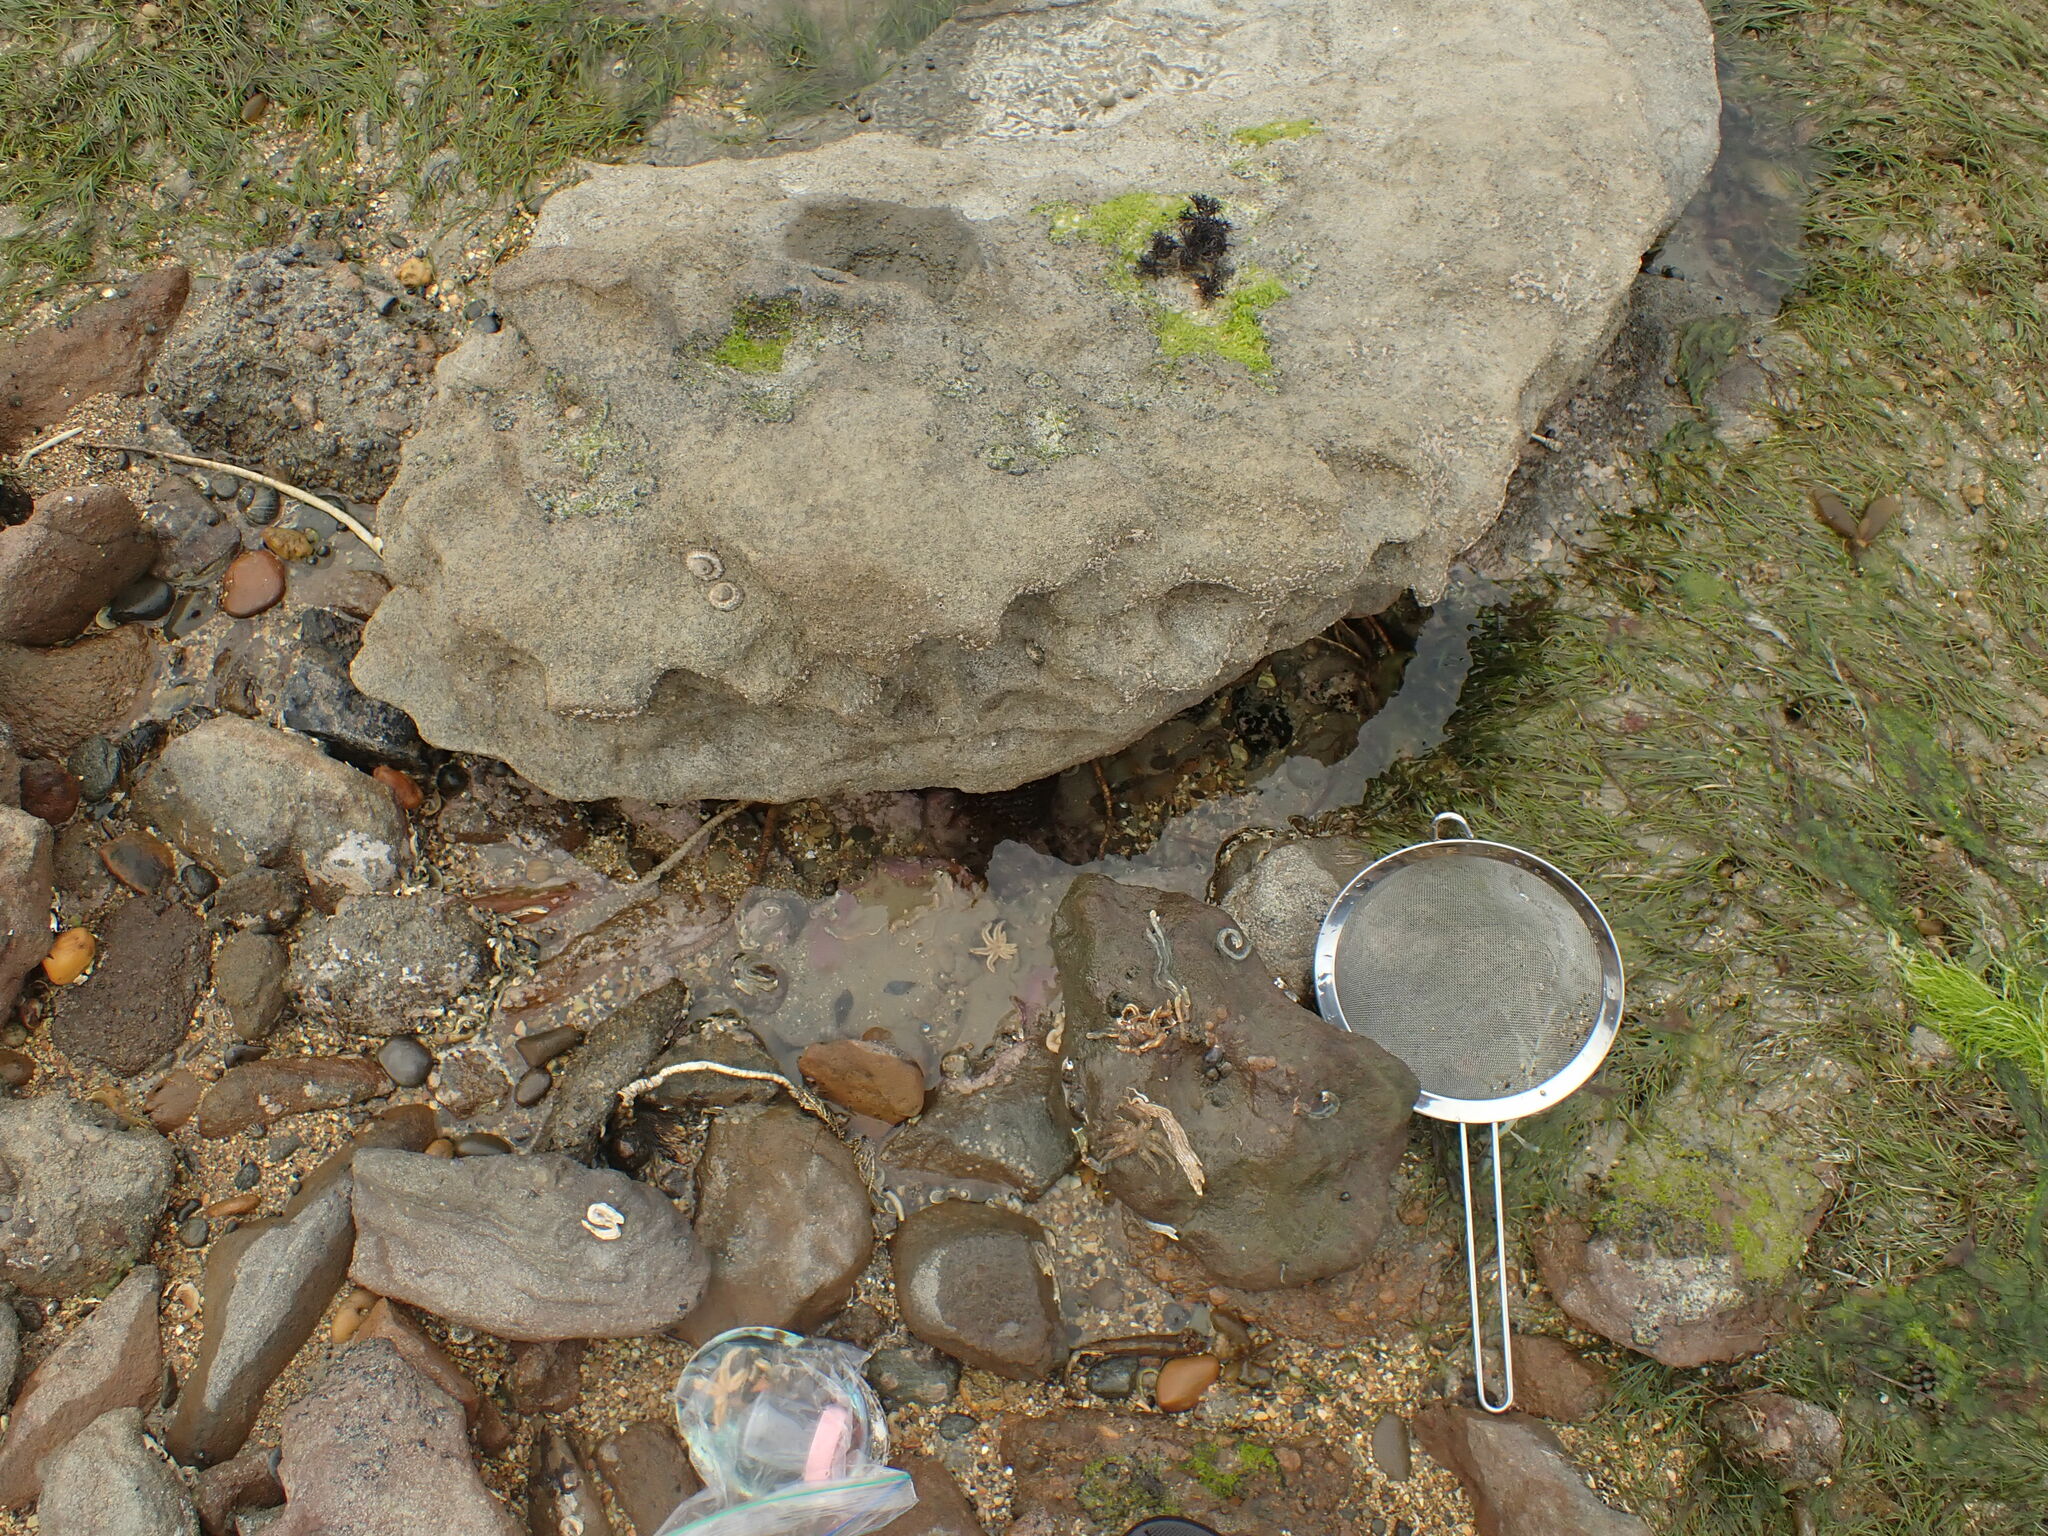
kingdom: Animalia
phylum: Echinodermata
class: Asteroidea
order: Forcipulatida
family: Stichasteridae
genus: Allostichaster
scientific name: Allostichaster polyplax
